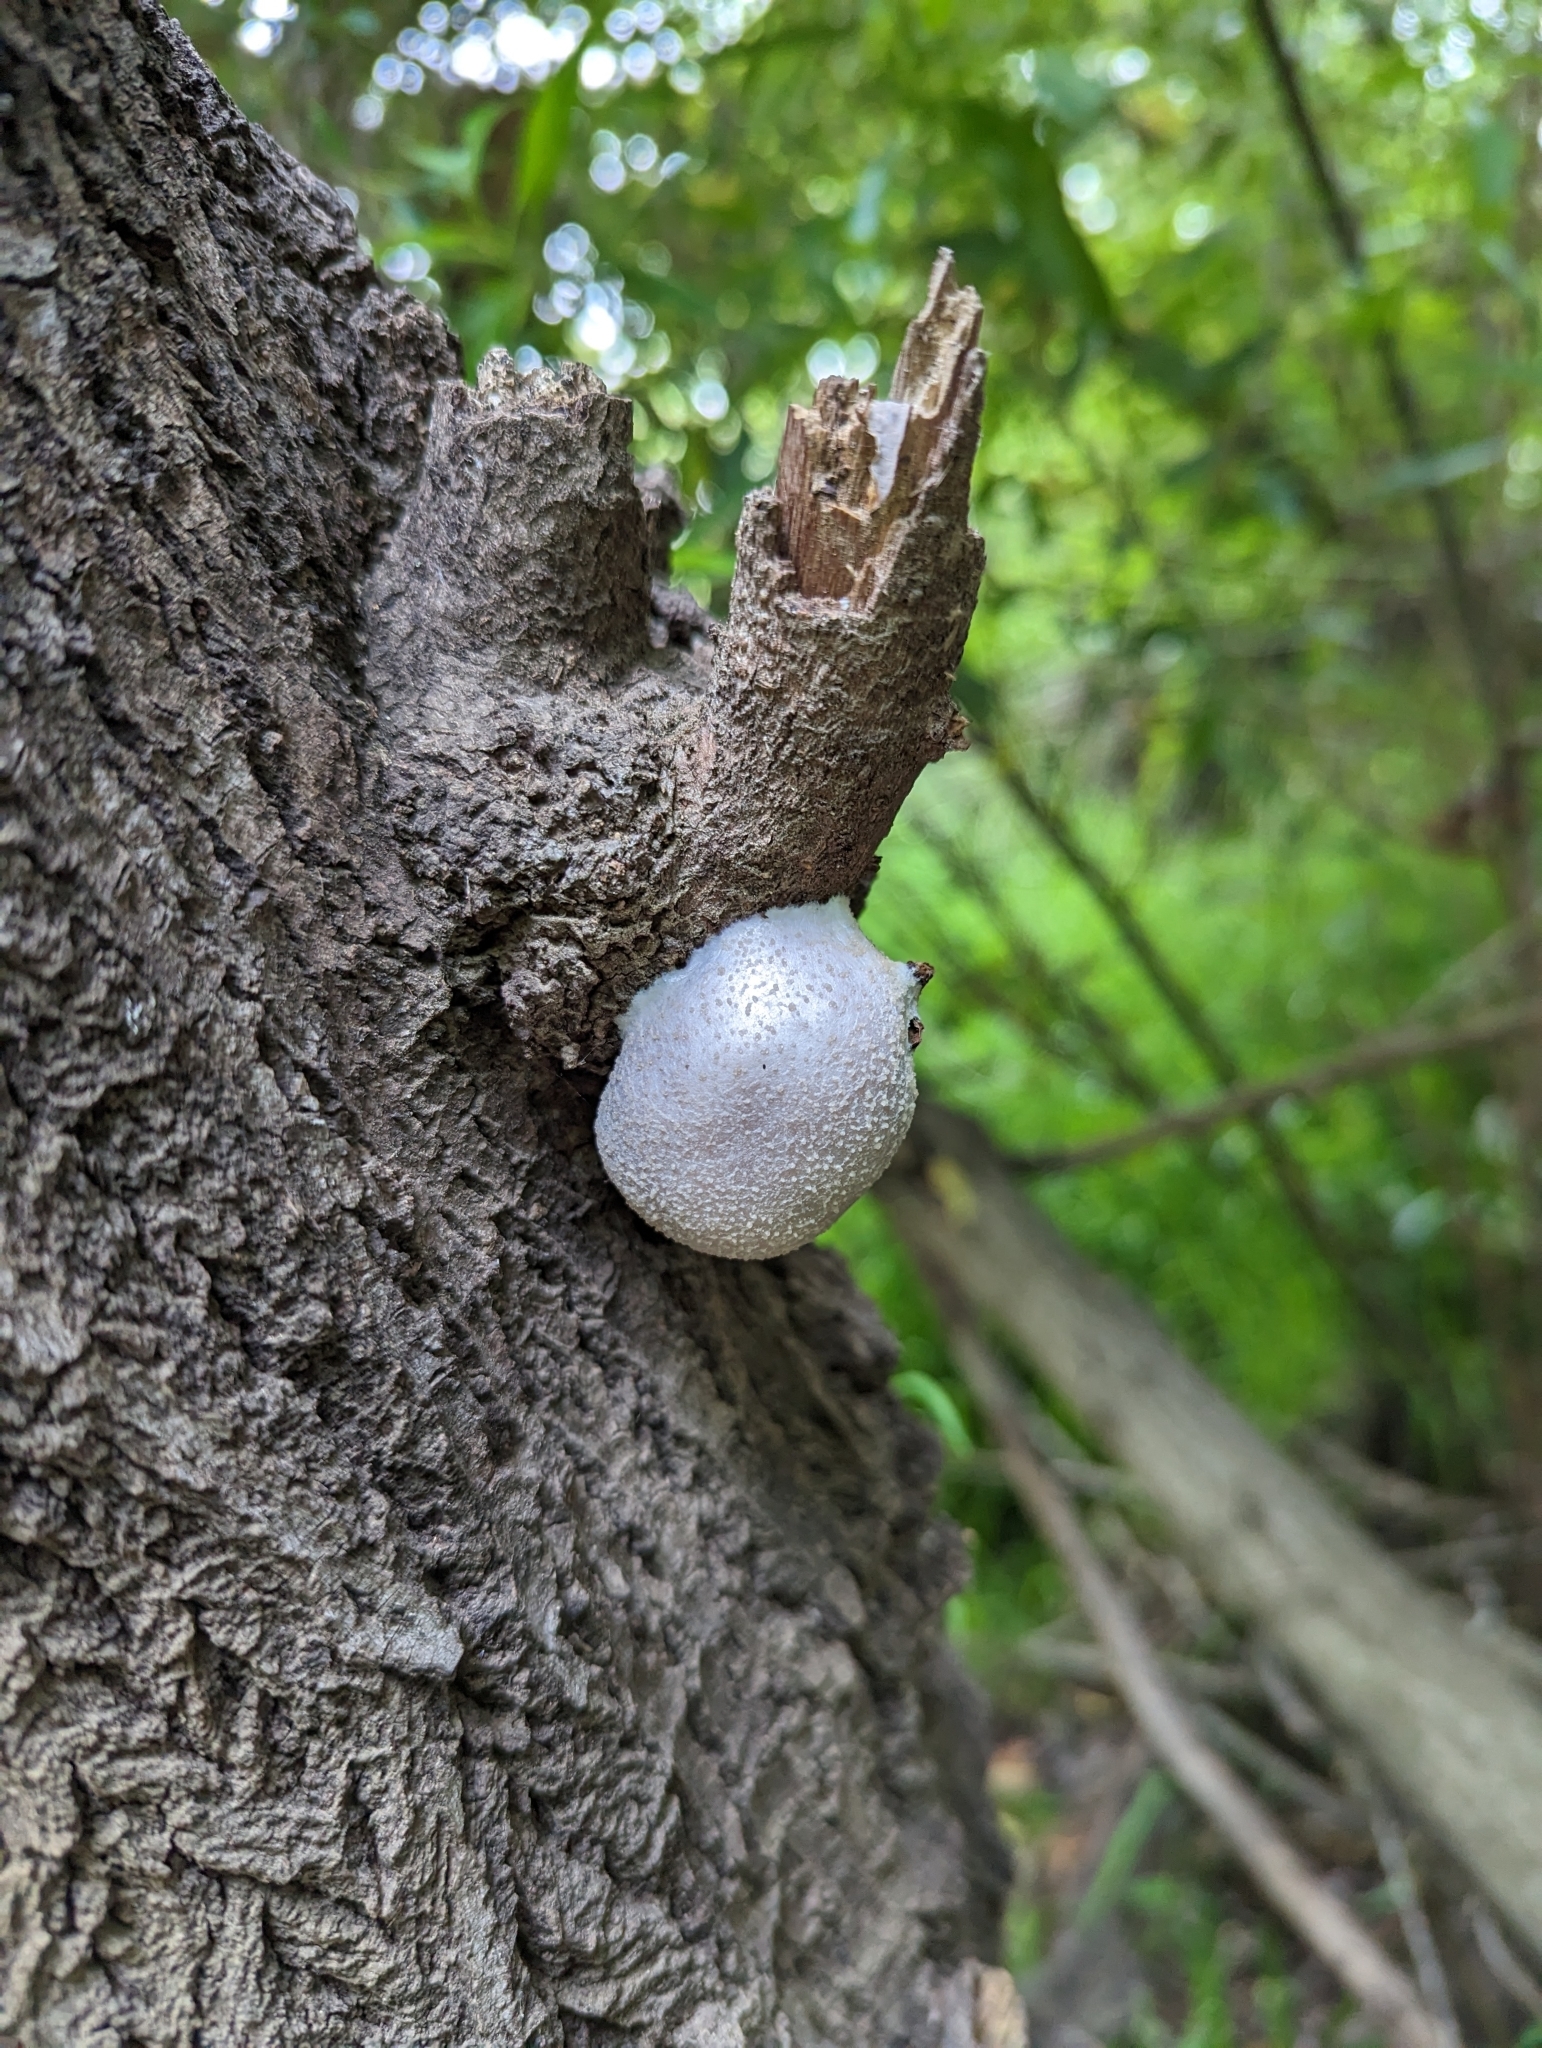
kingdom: Protozoa
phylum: Mycetozoa
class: Myxomycetes
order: Cribrariales
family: Tubiferaceae
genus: Reticularia
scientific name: Reticularia lycoperdon
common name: False puffball
